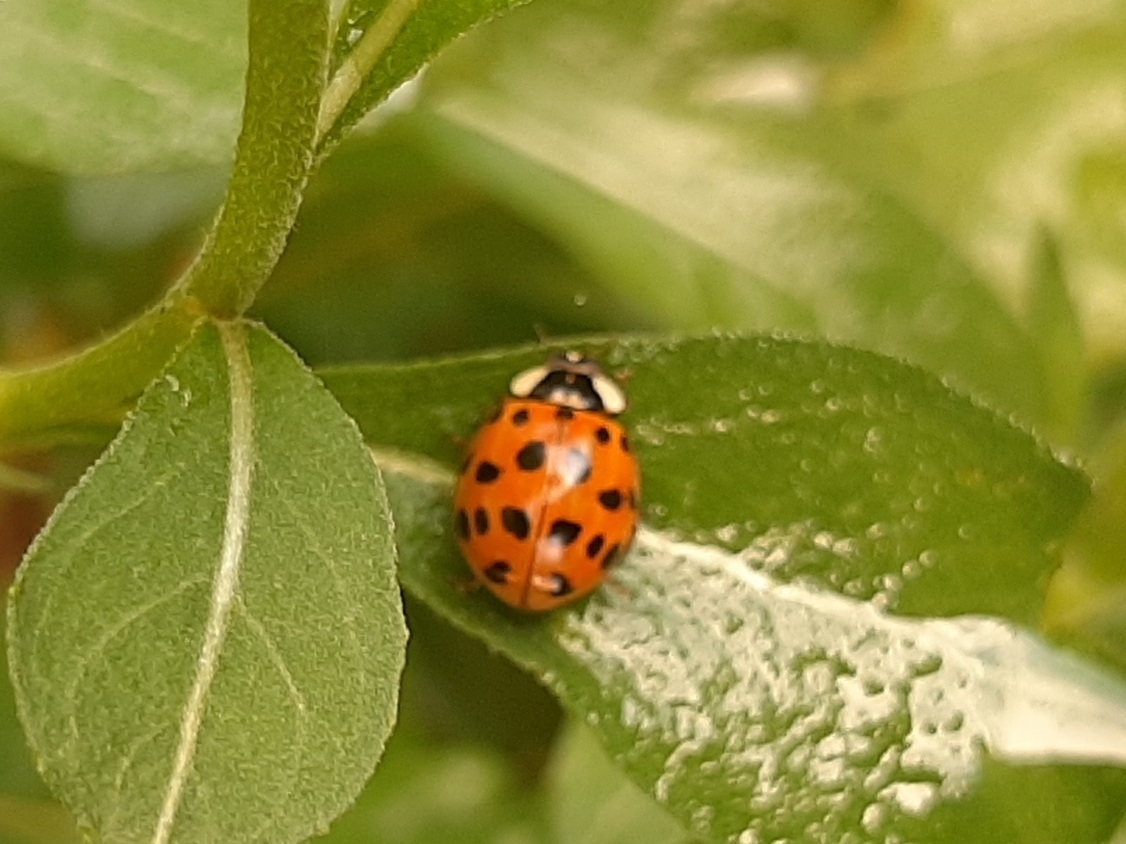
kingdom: Animalia
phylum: Arthropoda
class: Insecta
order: Coleoptera
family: Coccinellidae
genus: Harmonia
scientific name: Harmonia axyridis
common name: Harlequin ladybird
